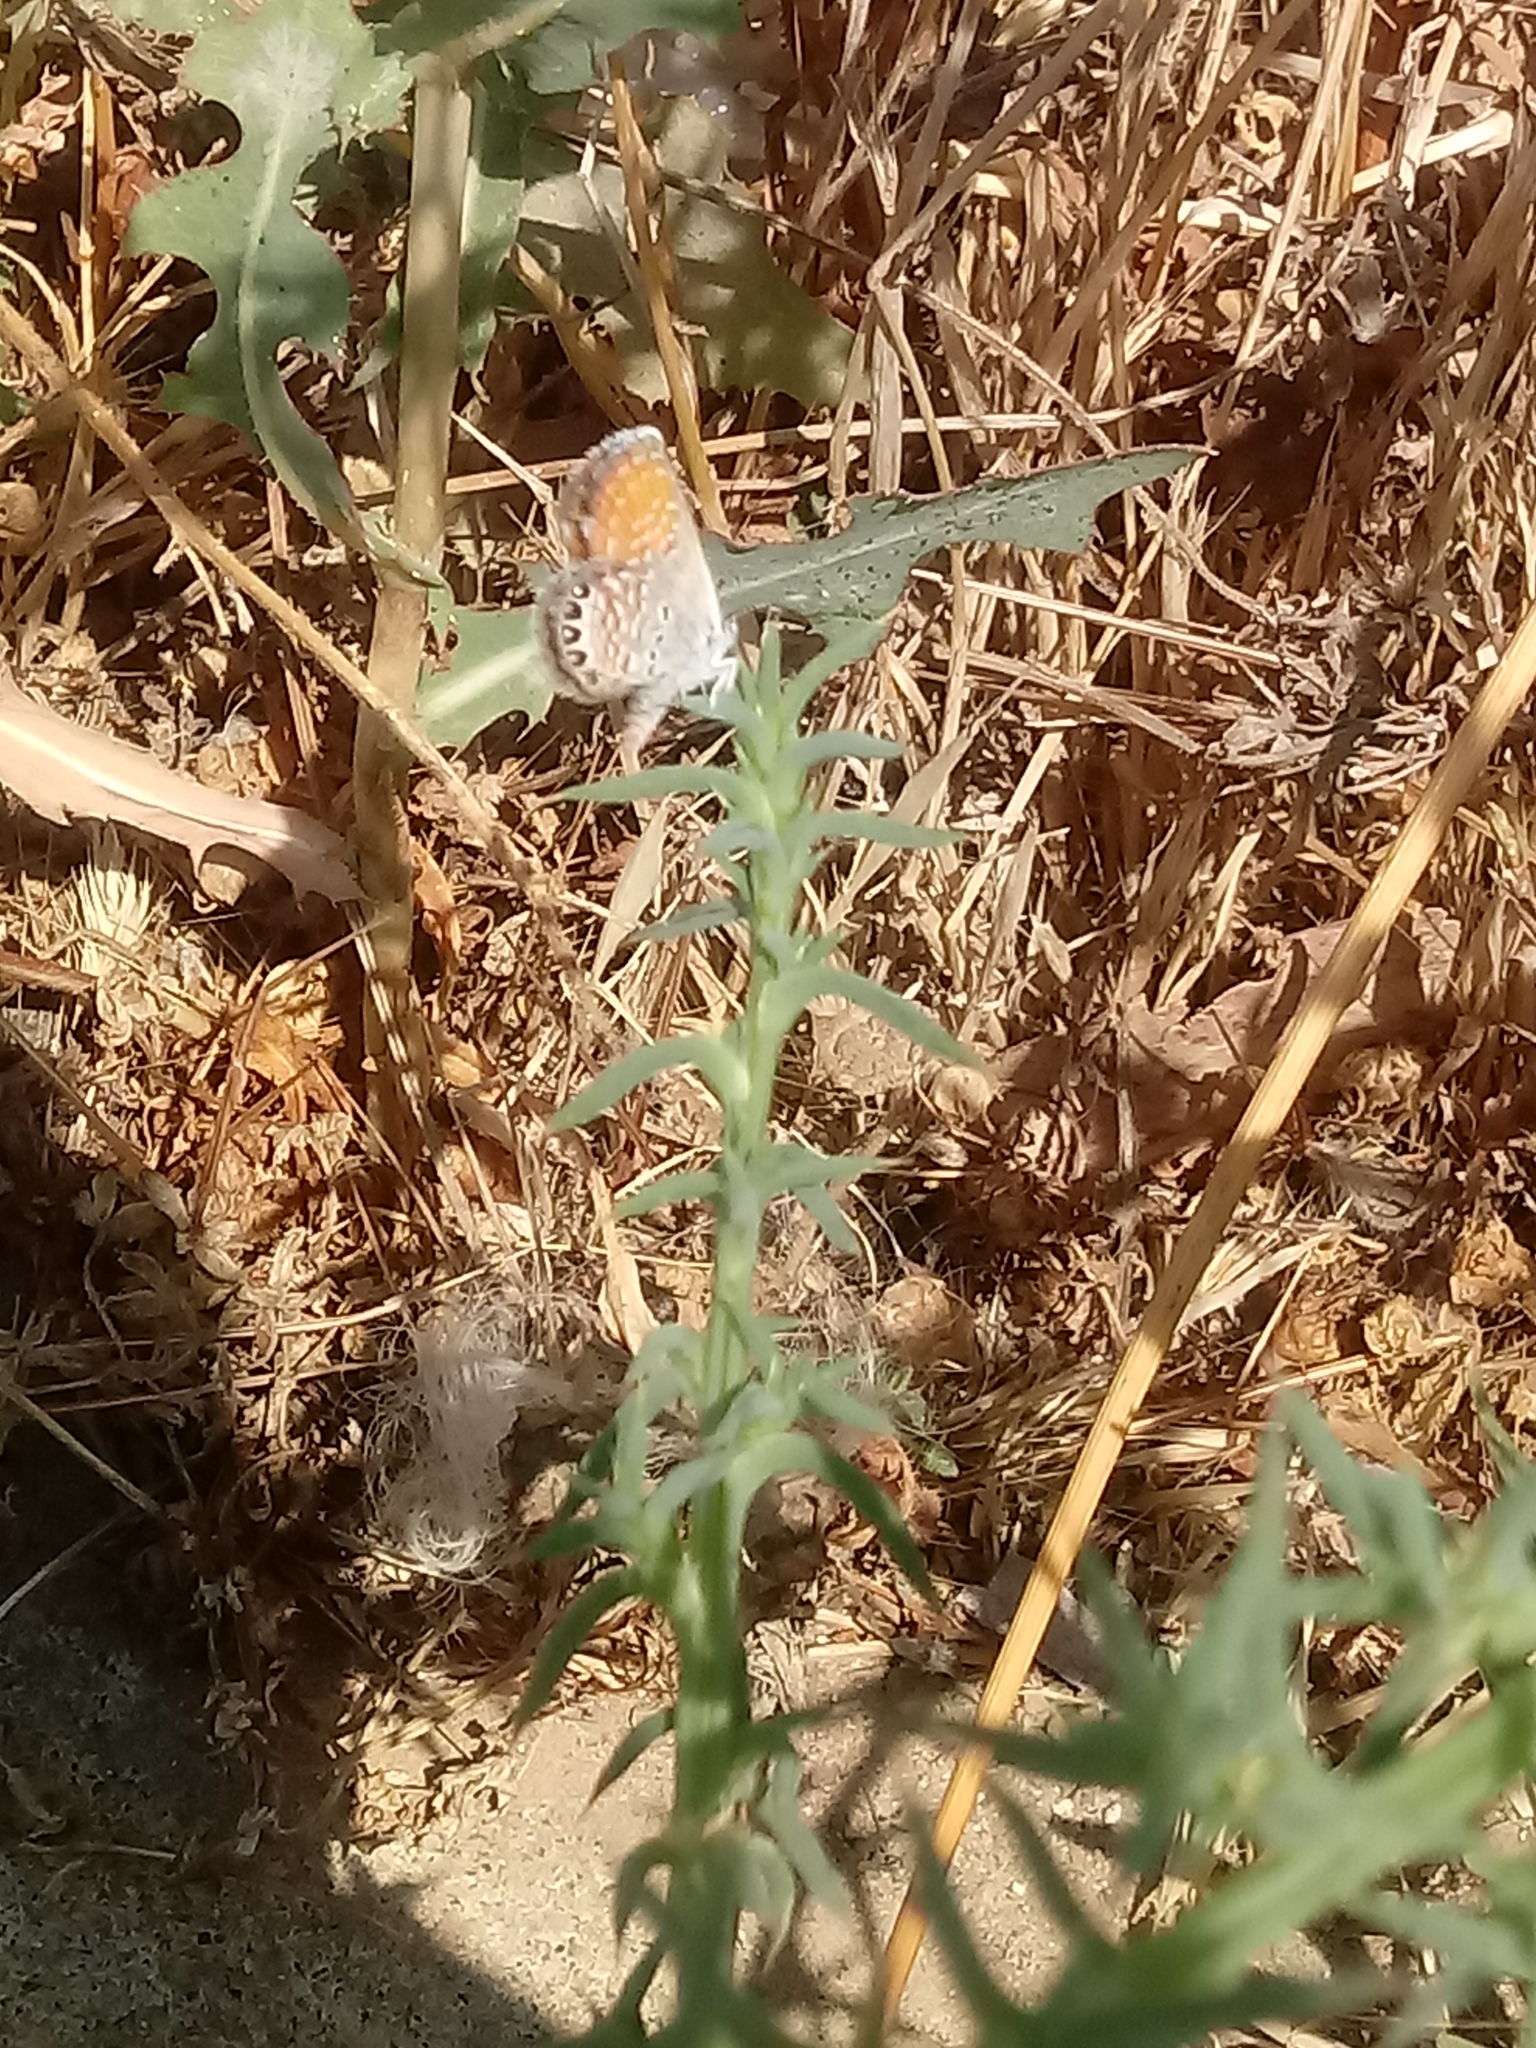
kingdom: Animalia
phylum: Arthropoda
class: Insecta
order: Lepidoptera
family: Lycaenidae
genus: Brephidium
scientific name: Brephidium exilis
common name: Pygmy blue
